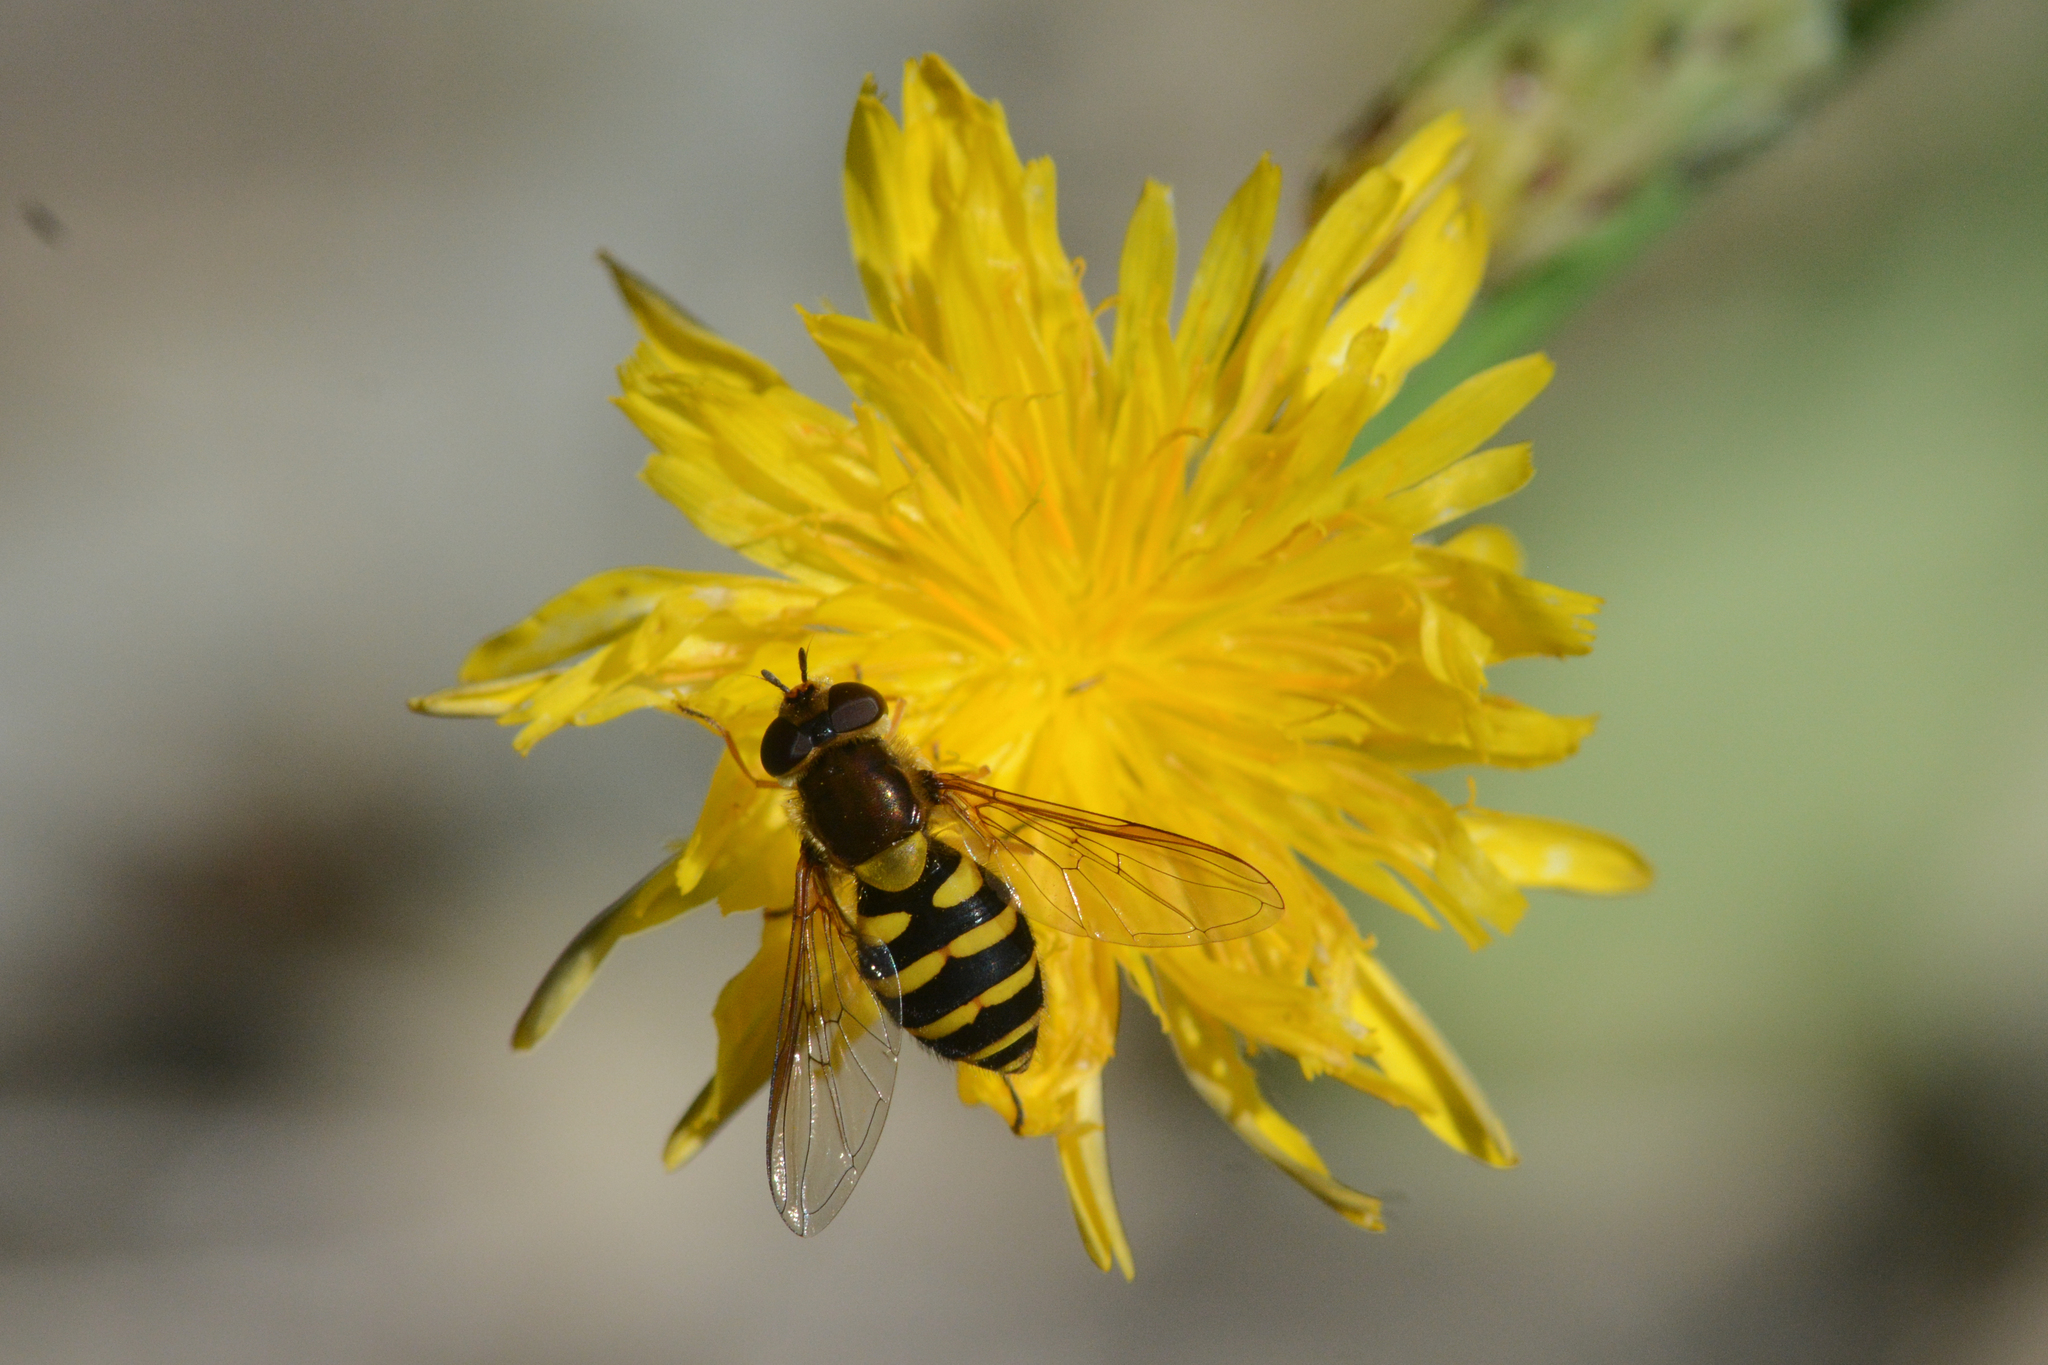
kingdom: Animalia
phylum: Arthropoda
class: Insecta
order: Diptera
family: Syrphidae
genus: Syrphus
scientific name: Syrphus ribesii
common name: Common flower fly
